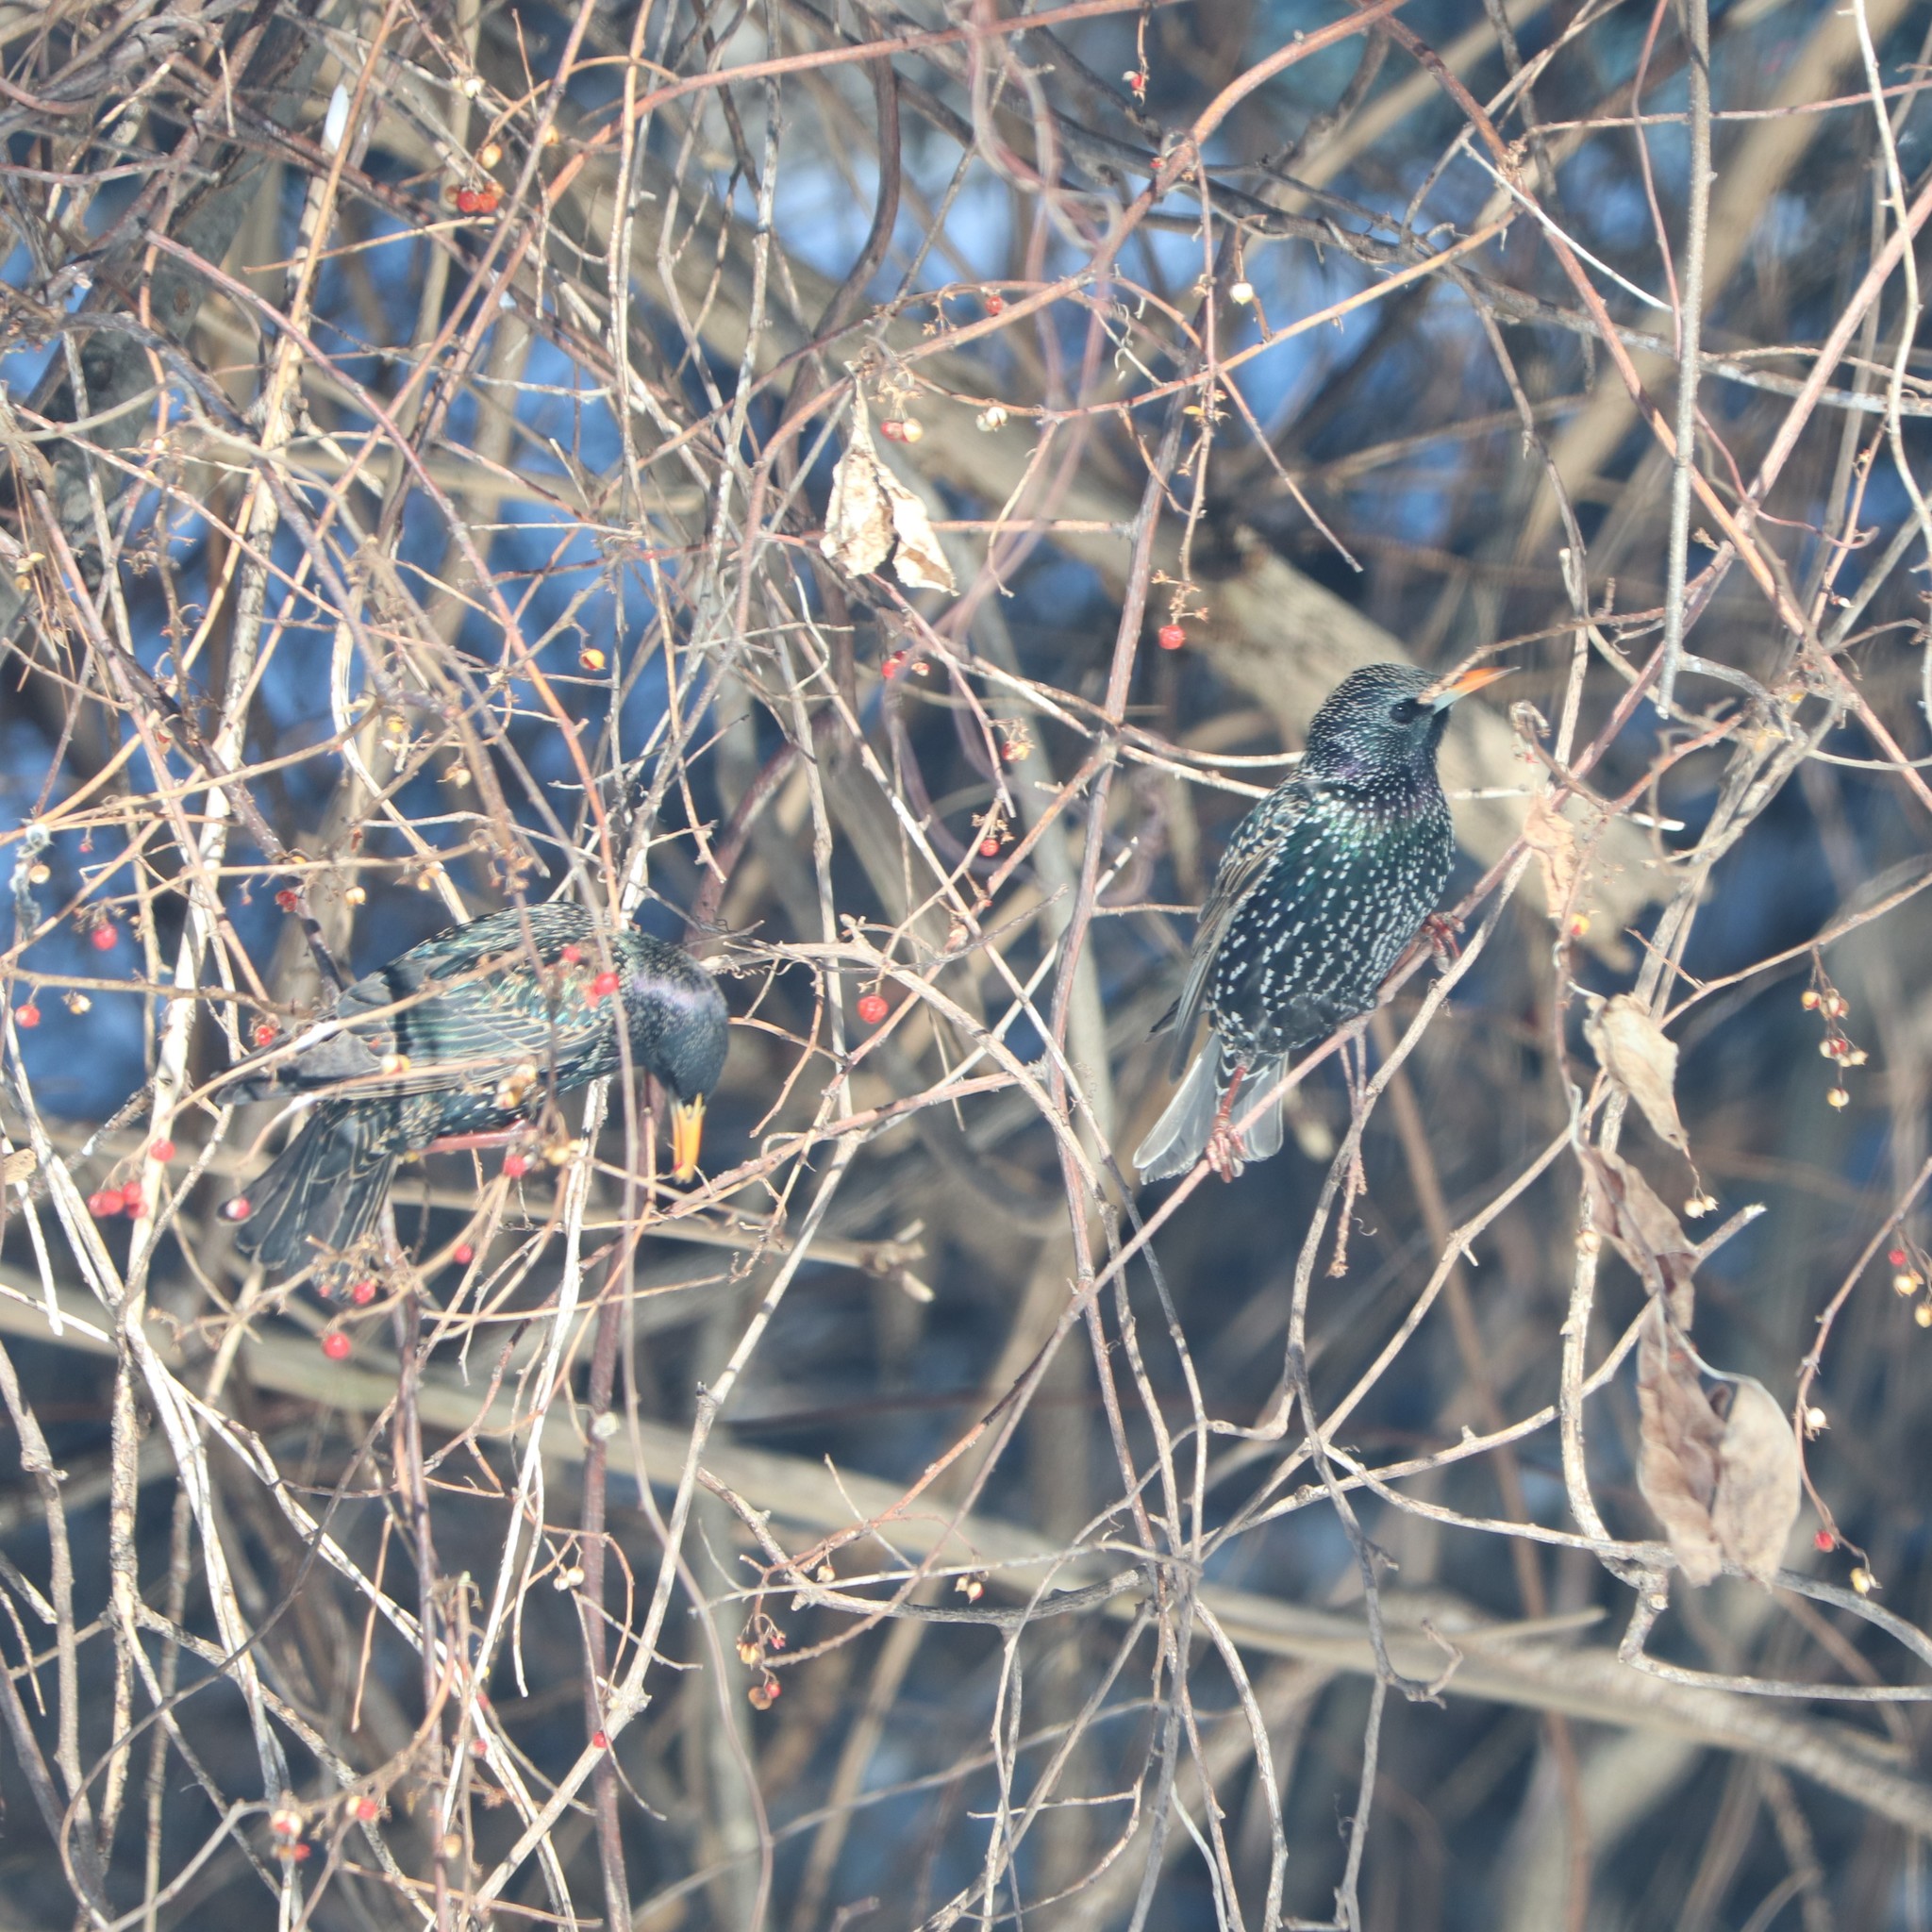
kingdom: Animalia
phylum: Chordata
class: Aves
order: Passeriformes
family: Sturnidae
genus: Sturnus
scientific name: Sturnus vulgaris
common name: Common starling
